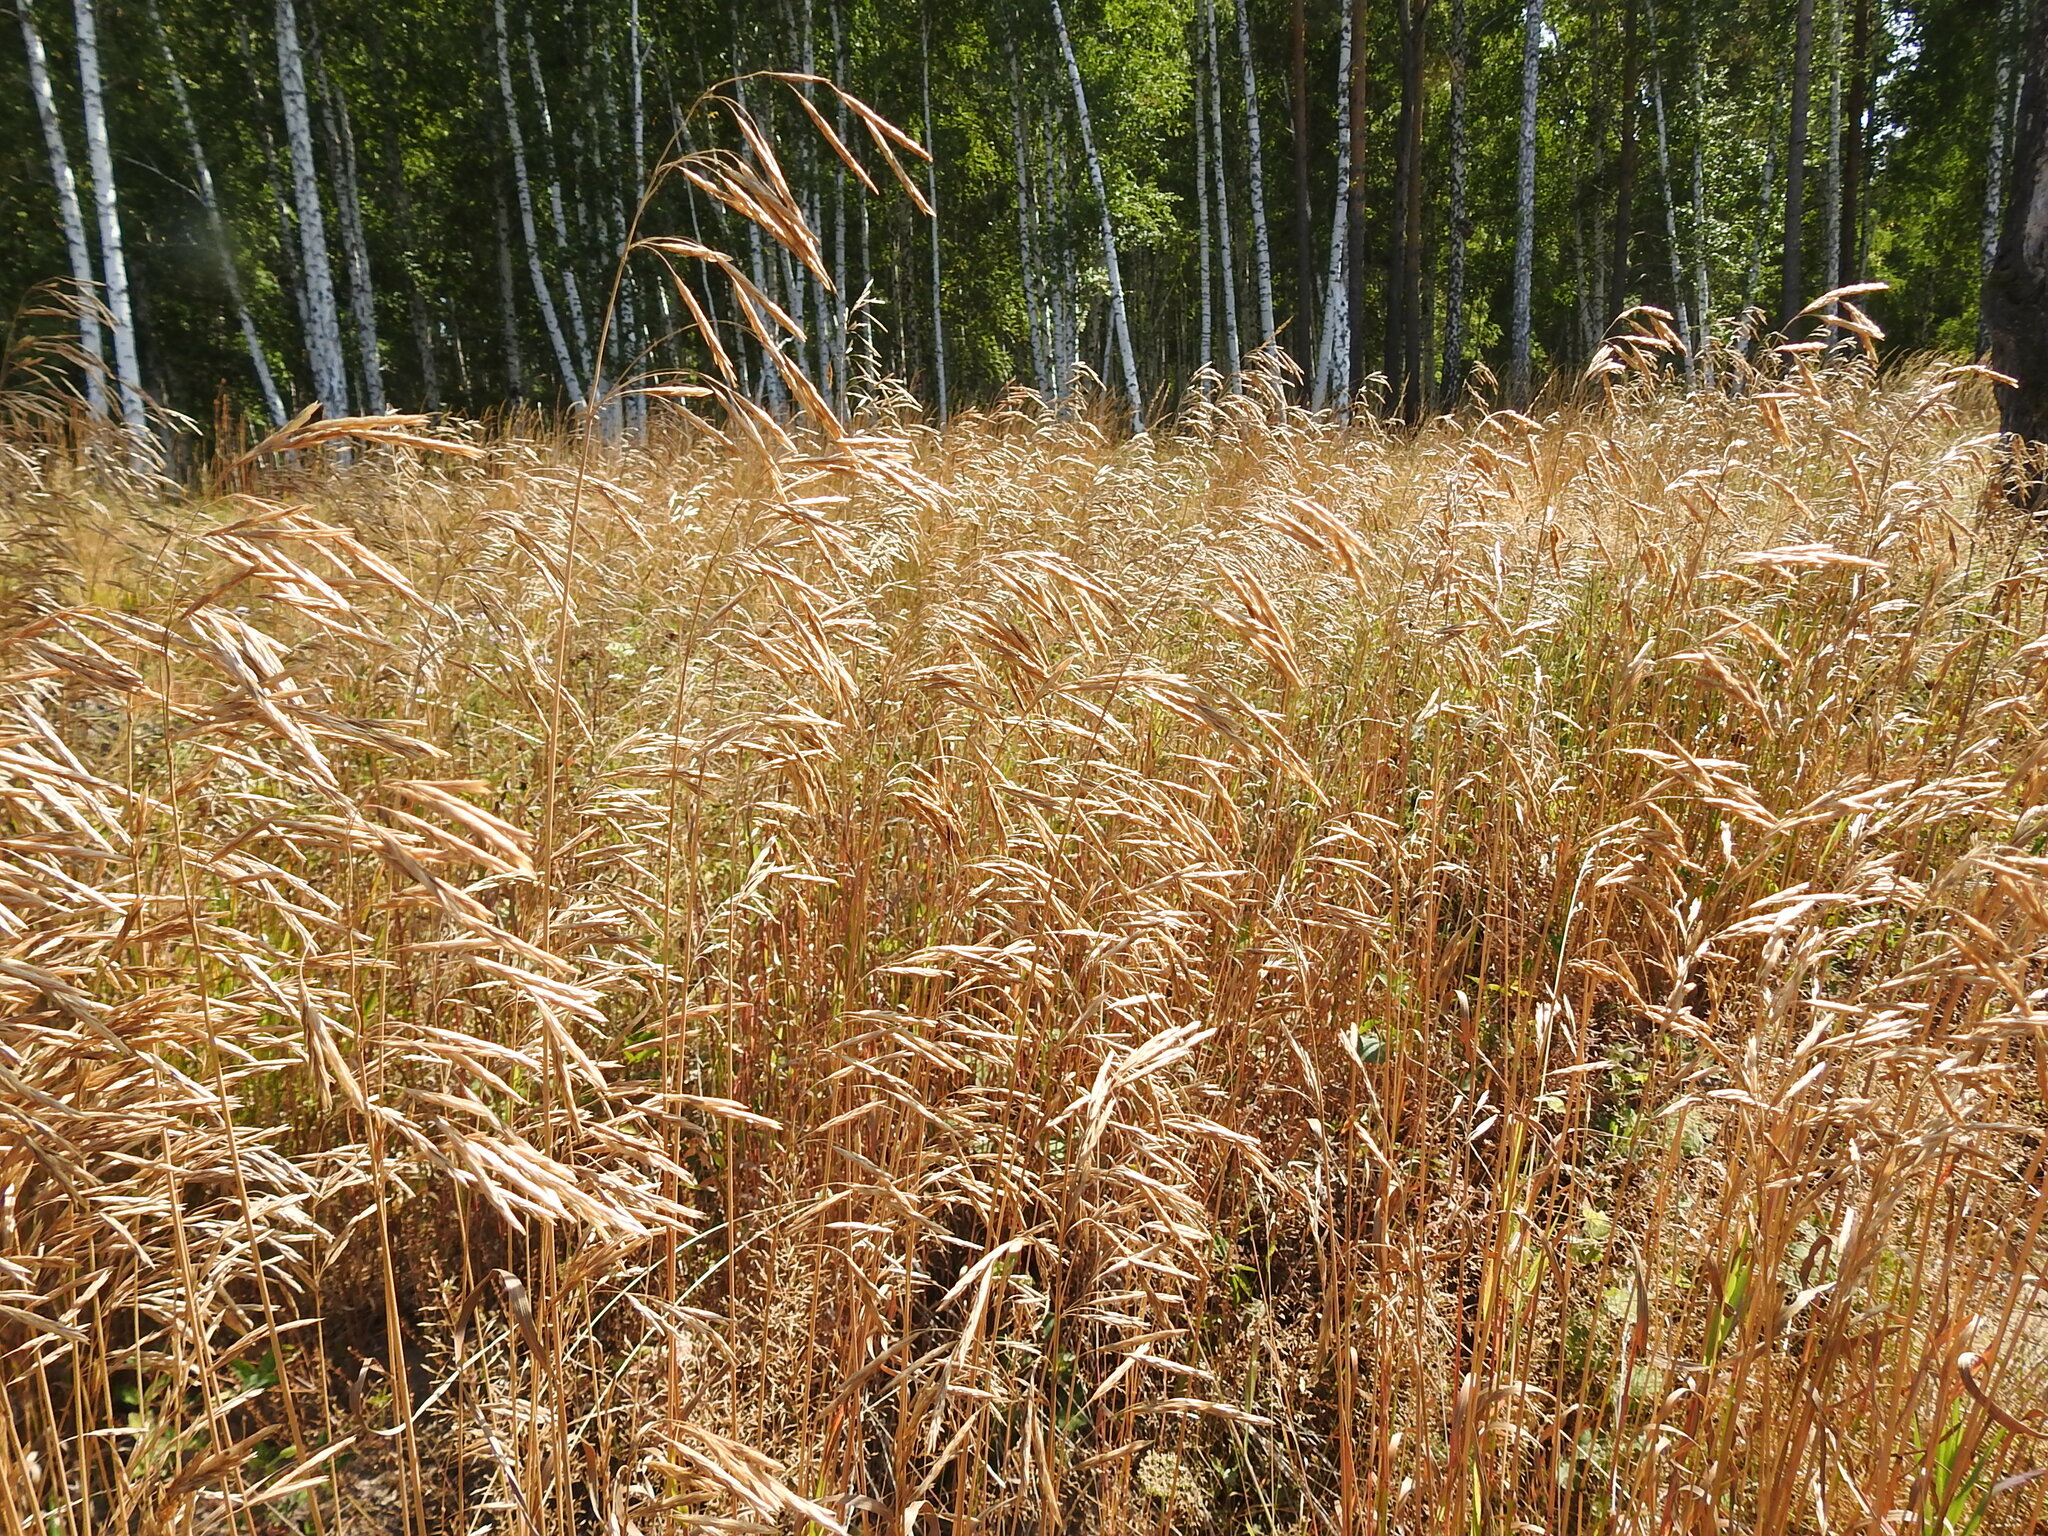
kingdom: Plantae
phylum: Tracheophyta
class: Liliopsida
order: Poales
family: Poaceae
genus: Bromus
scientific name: Bromus inermis
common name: Smooth brome
